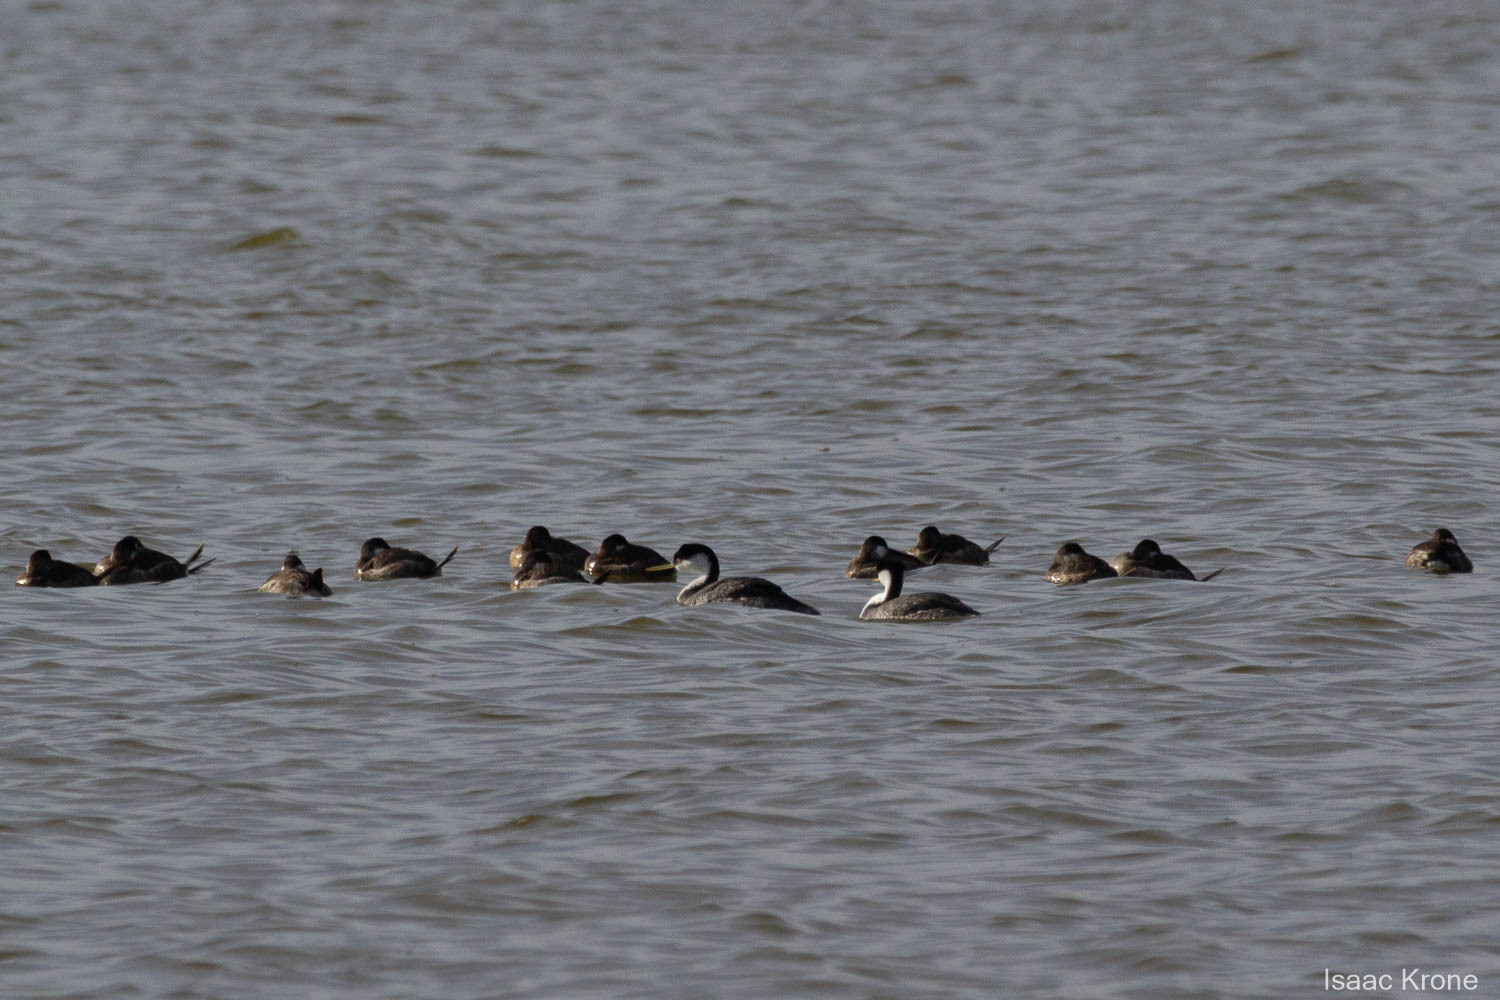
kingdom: Animalia
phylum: Chordata
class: Aves
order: Podicipediformes
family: Podicipedidae
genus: Aechmophorus
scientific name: Aechmophorus occidentalis
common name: Western grebe
